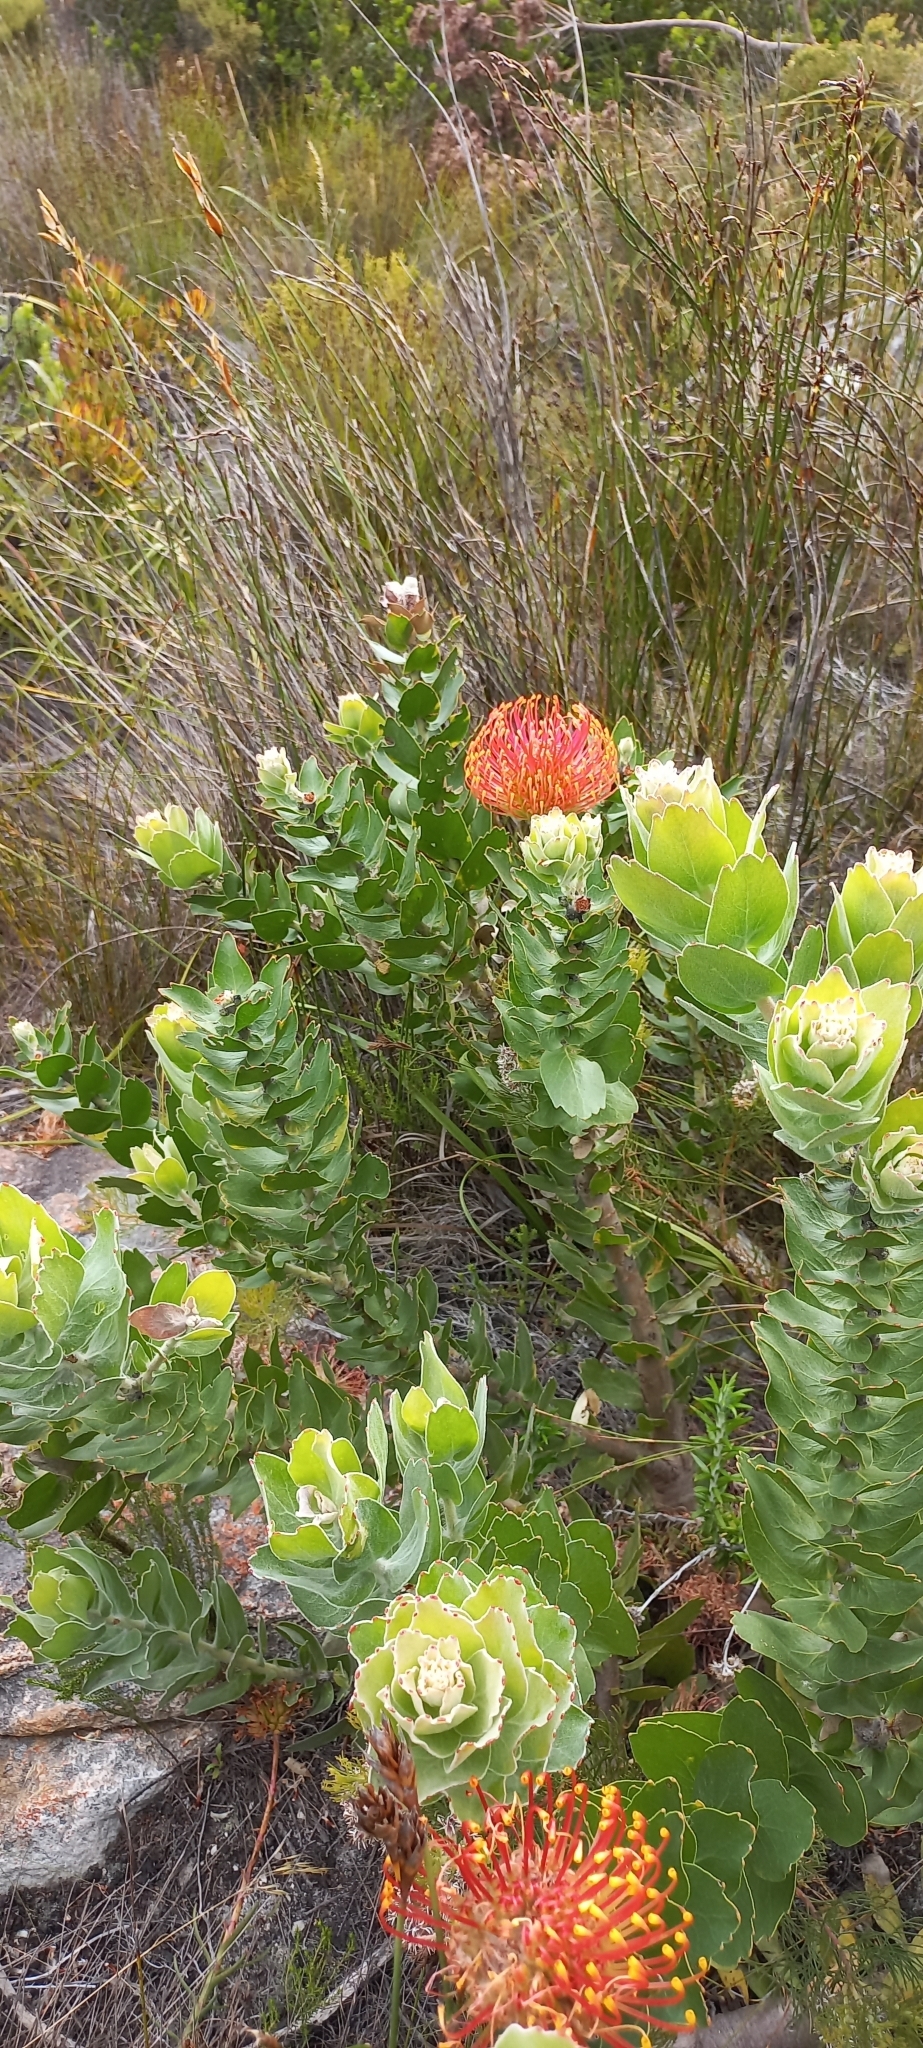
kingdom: Plantae
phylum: Tracheophyta
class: Magnoliopsida
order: Proteales
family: Proteaceae
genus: Leucospermum
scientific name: Leucospermum patersonii
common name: False tree pincushion
